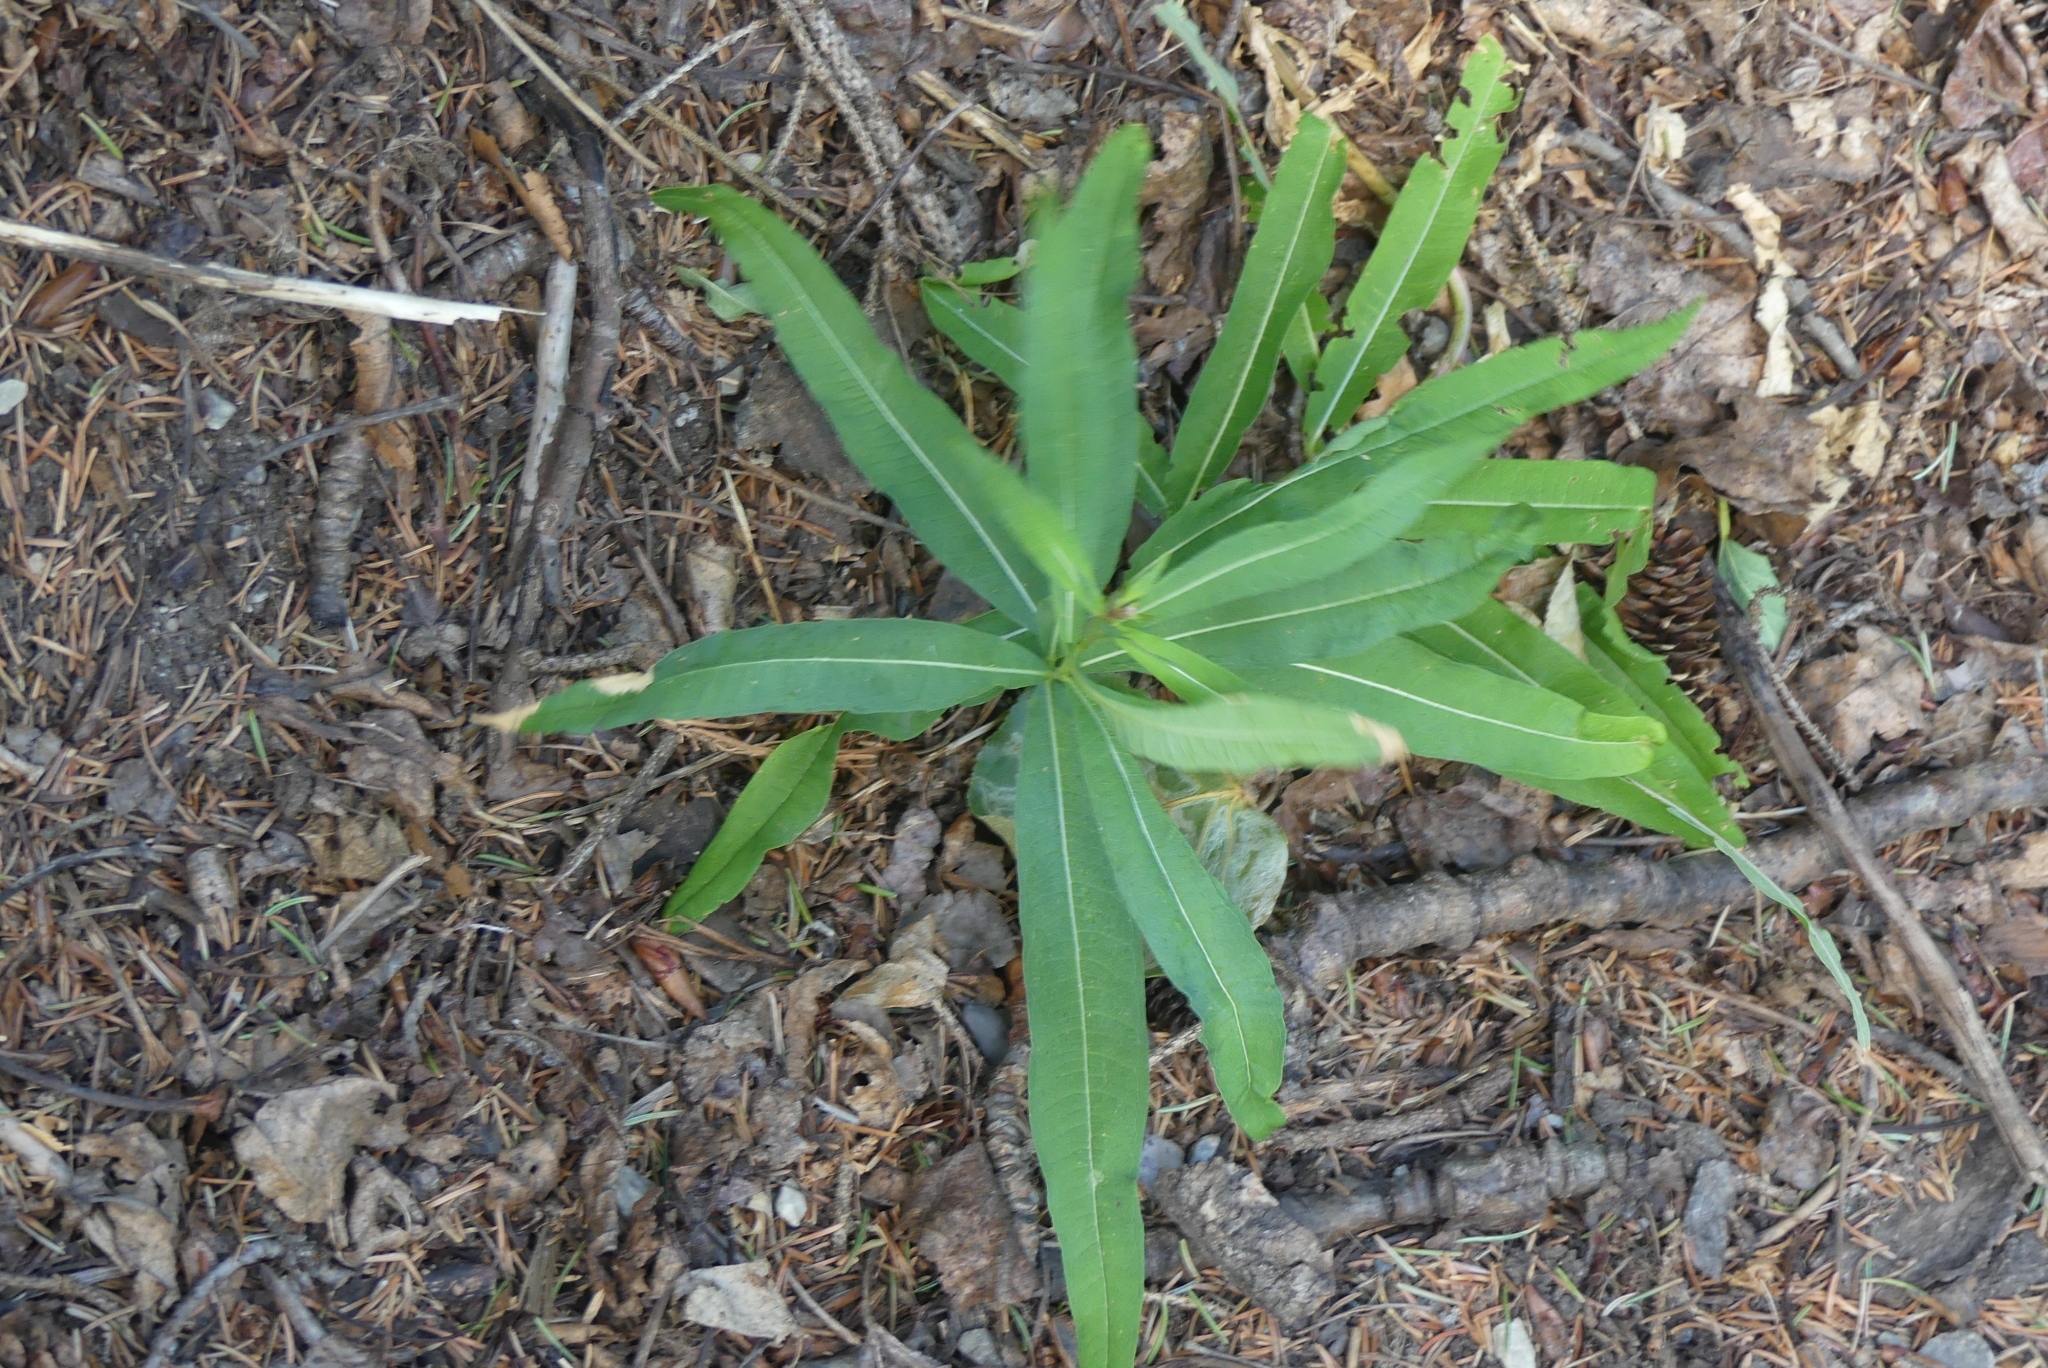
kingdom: Plantae
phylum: Tracheophyta
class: Magnoliopsida
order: Myrtales
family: Onagraceae
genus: Chamaenerion
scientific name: Chamaenerion angustifolium
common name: Fireweed
